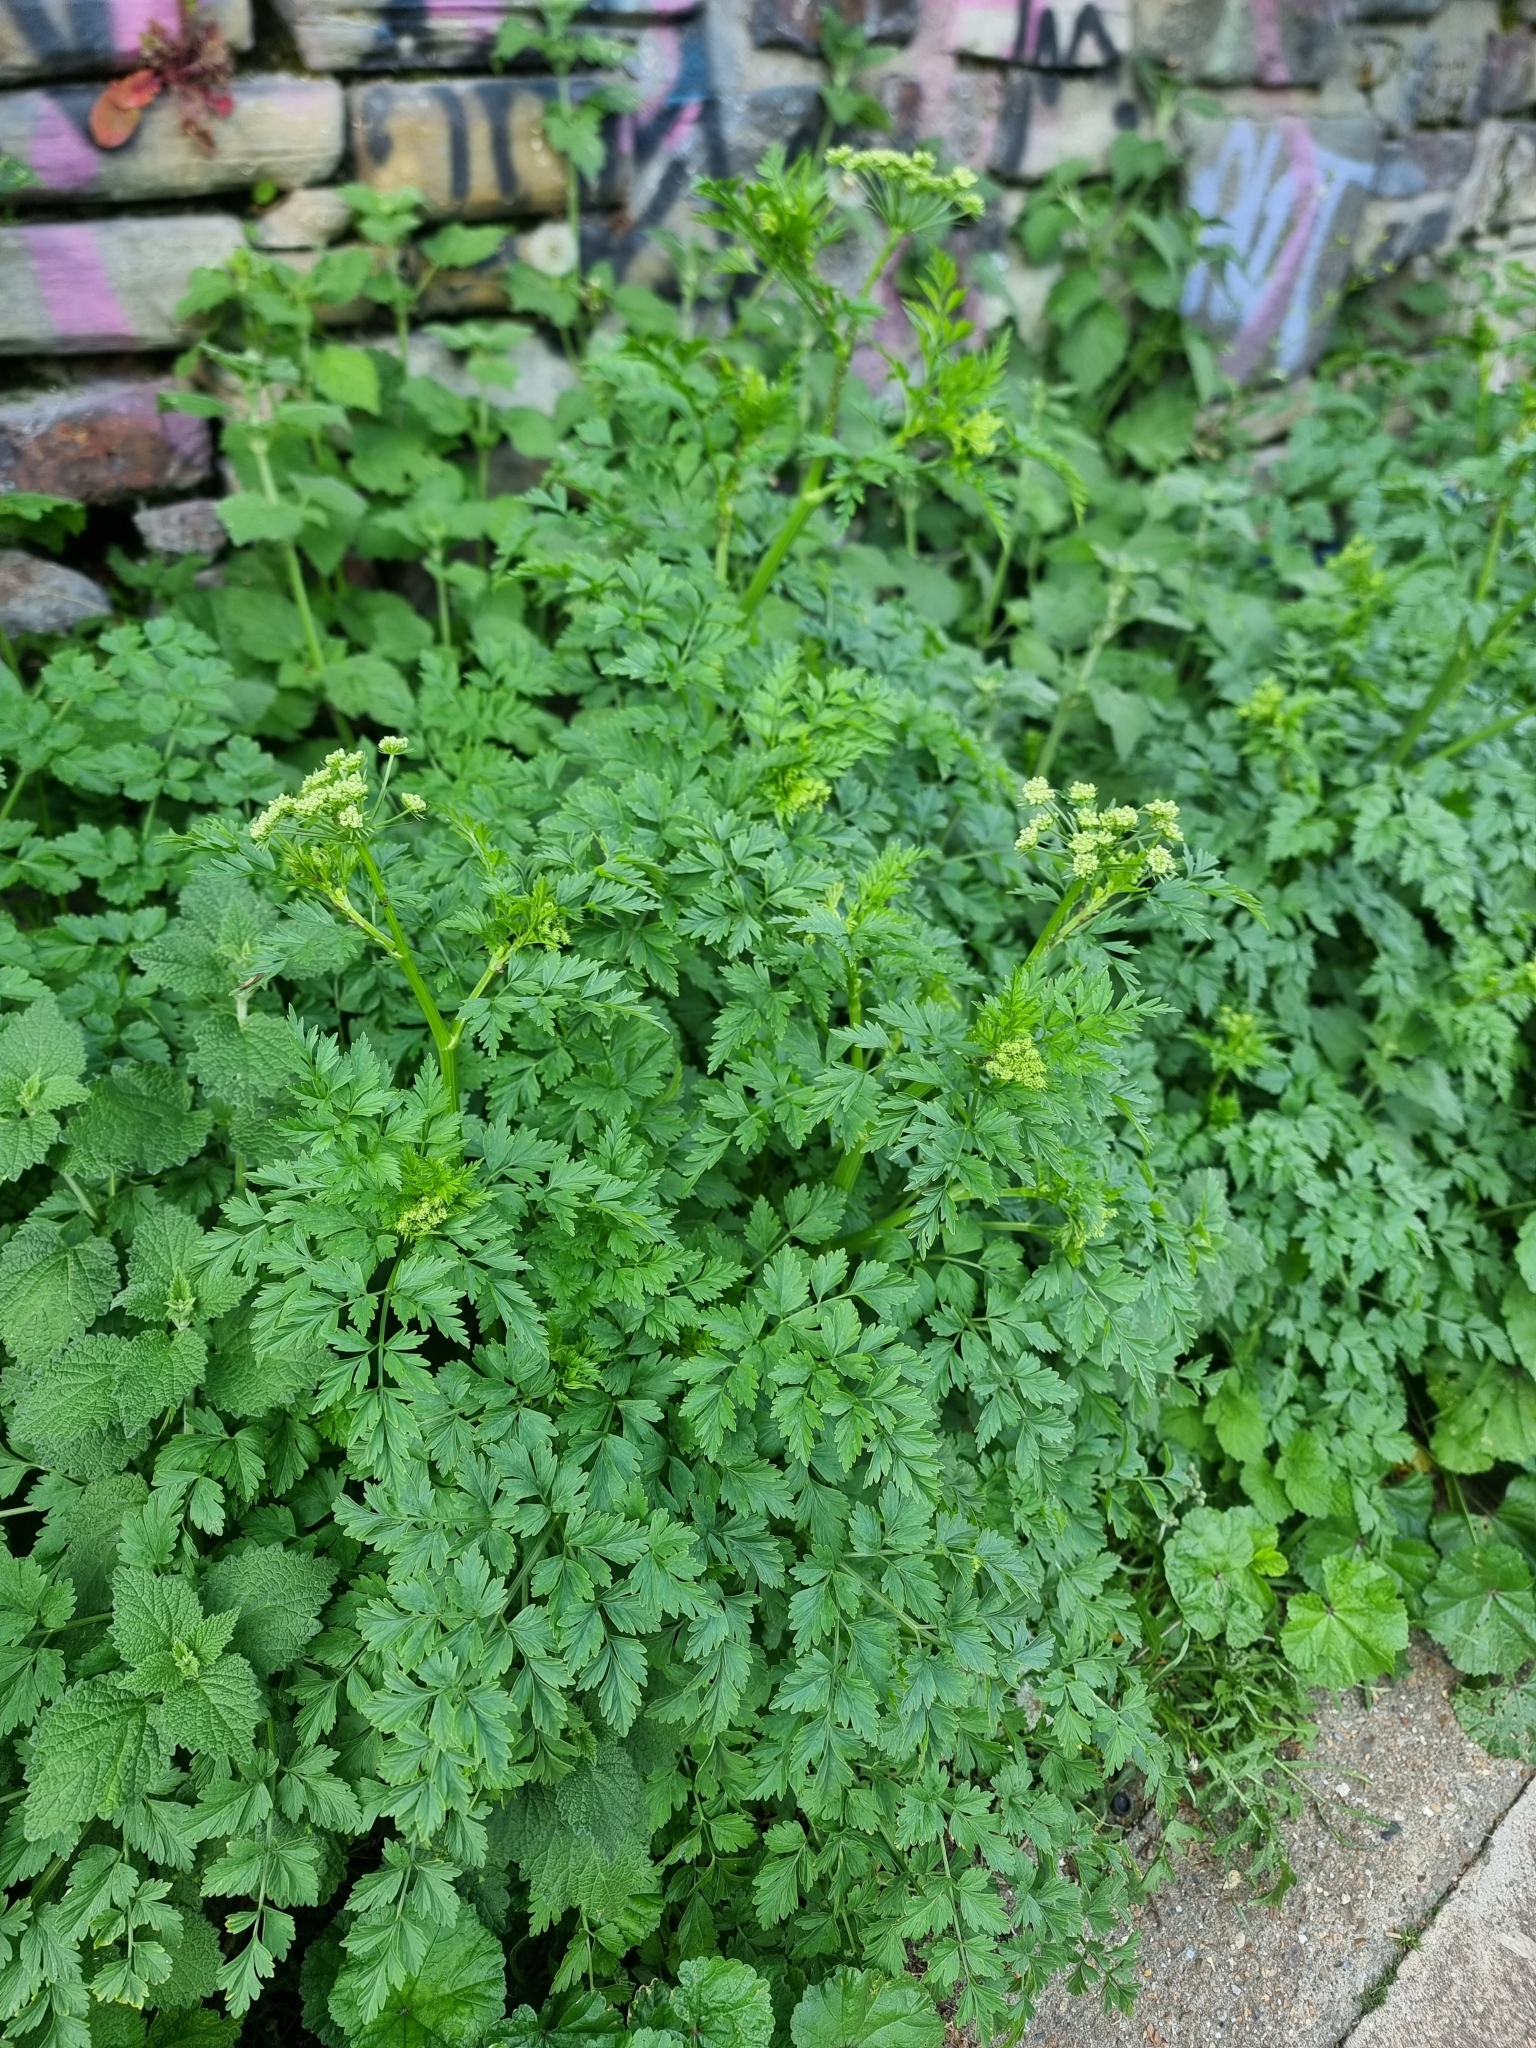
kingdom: Plantae
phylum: Tracheophyta
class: Magnoliopsida
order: Apiales
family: Apiaceae
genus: Oenanthe
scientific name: Oenanthe crocata
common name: Hemlock water-dropwort
